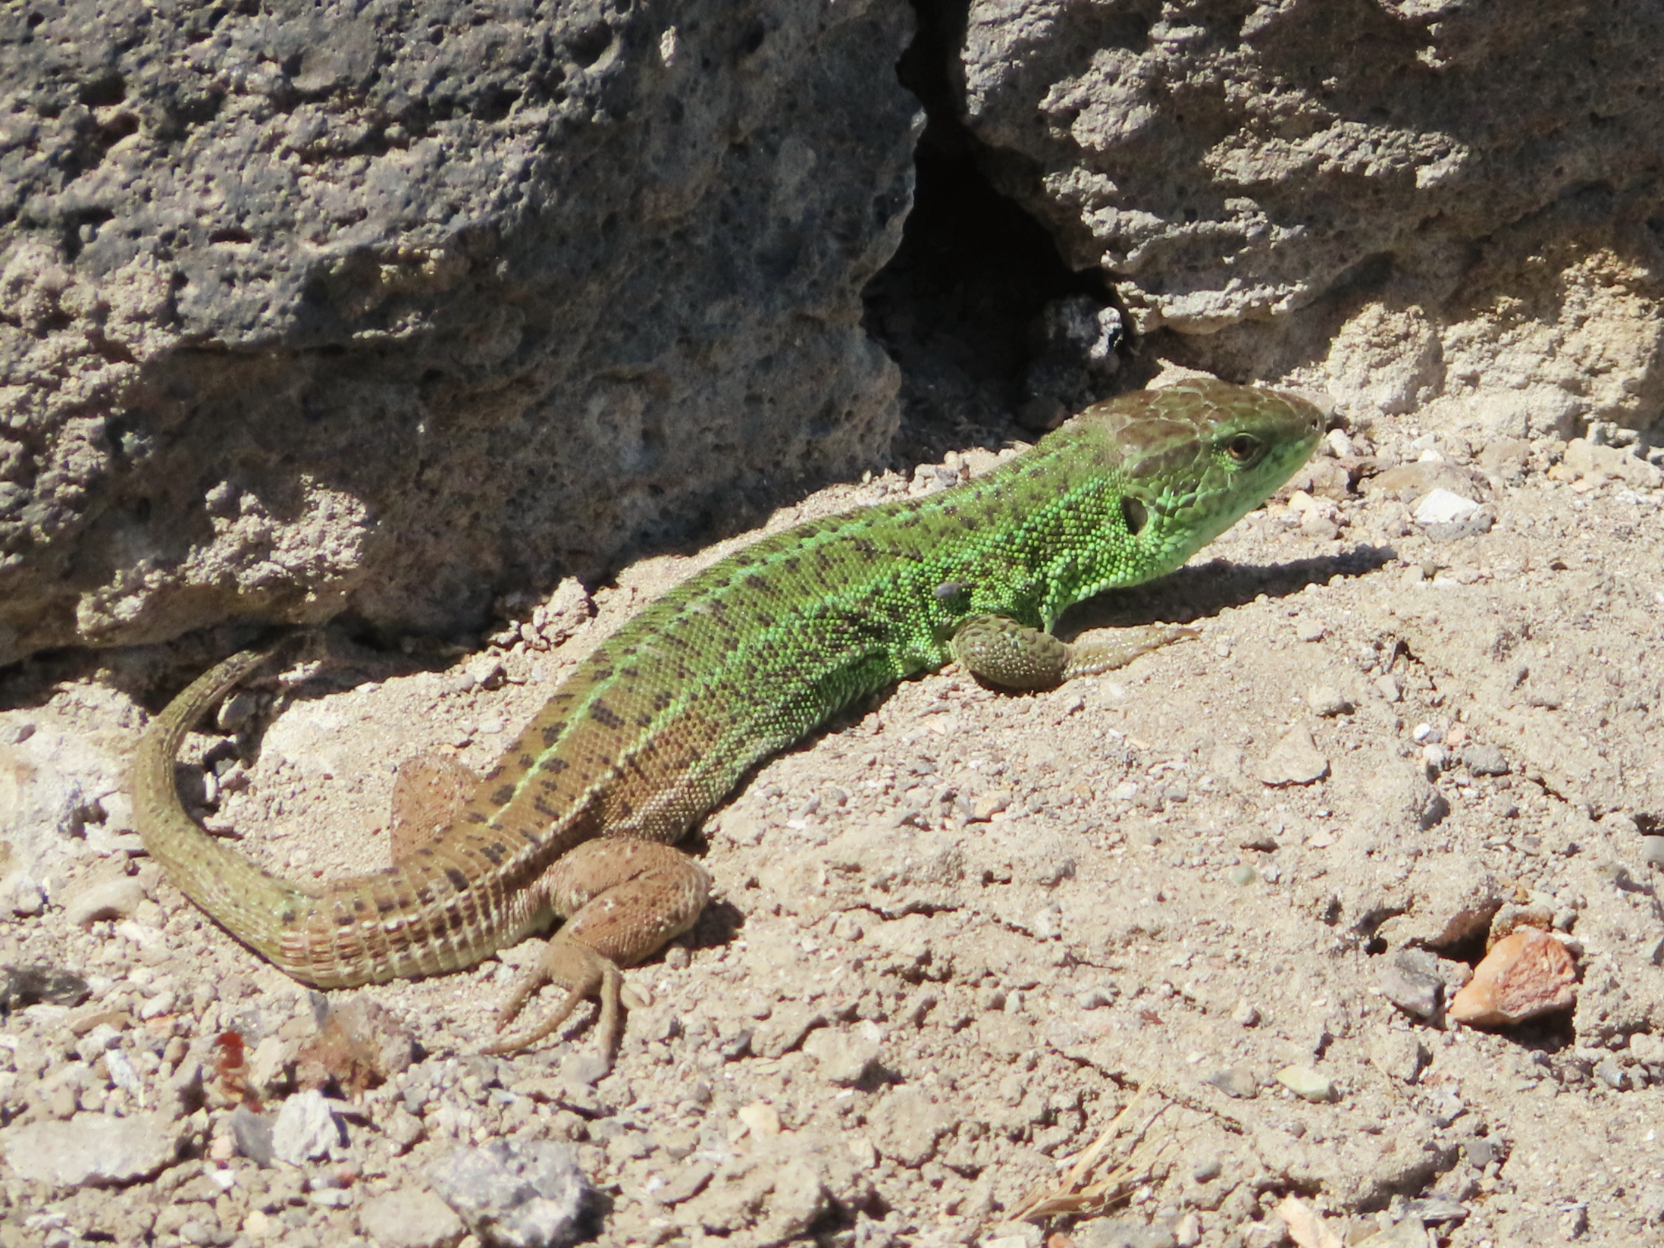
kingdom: Animalia
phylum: Chordata
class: Squamata
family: Lacertidae
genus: Lacerta
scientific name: Lacerta strigata
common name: Caspian green lizard
